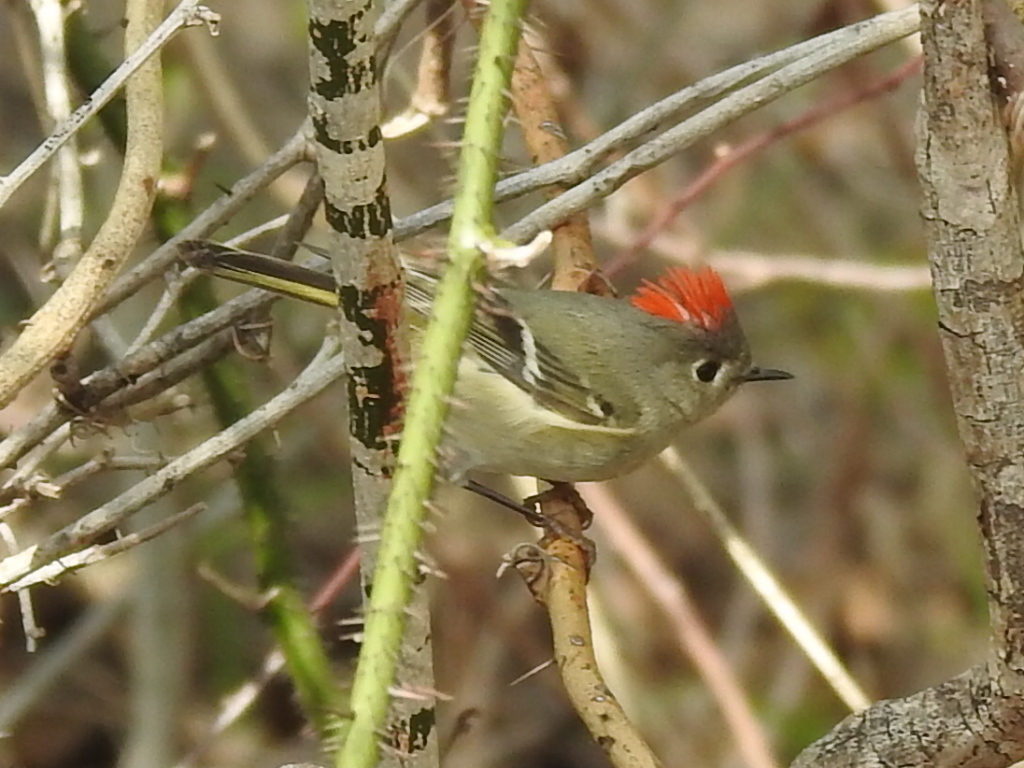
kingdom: Animalia
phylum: Chordata
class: Aves
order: Passeriformes
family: Regulidae
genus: Regulus
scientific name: Regulus calendula
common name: Ruby-crowned kinglet
